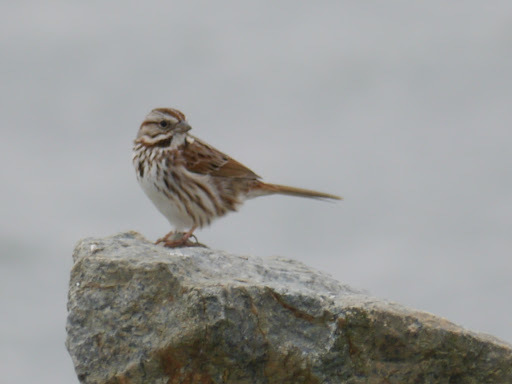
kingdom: Animalia
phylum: Chordata
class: Aves
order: Passeriformes
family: Passerellidae
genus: Melospiza
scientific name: Melospiza melodia
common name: Song sparrow
